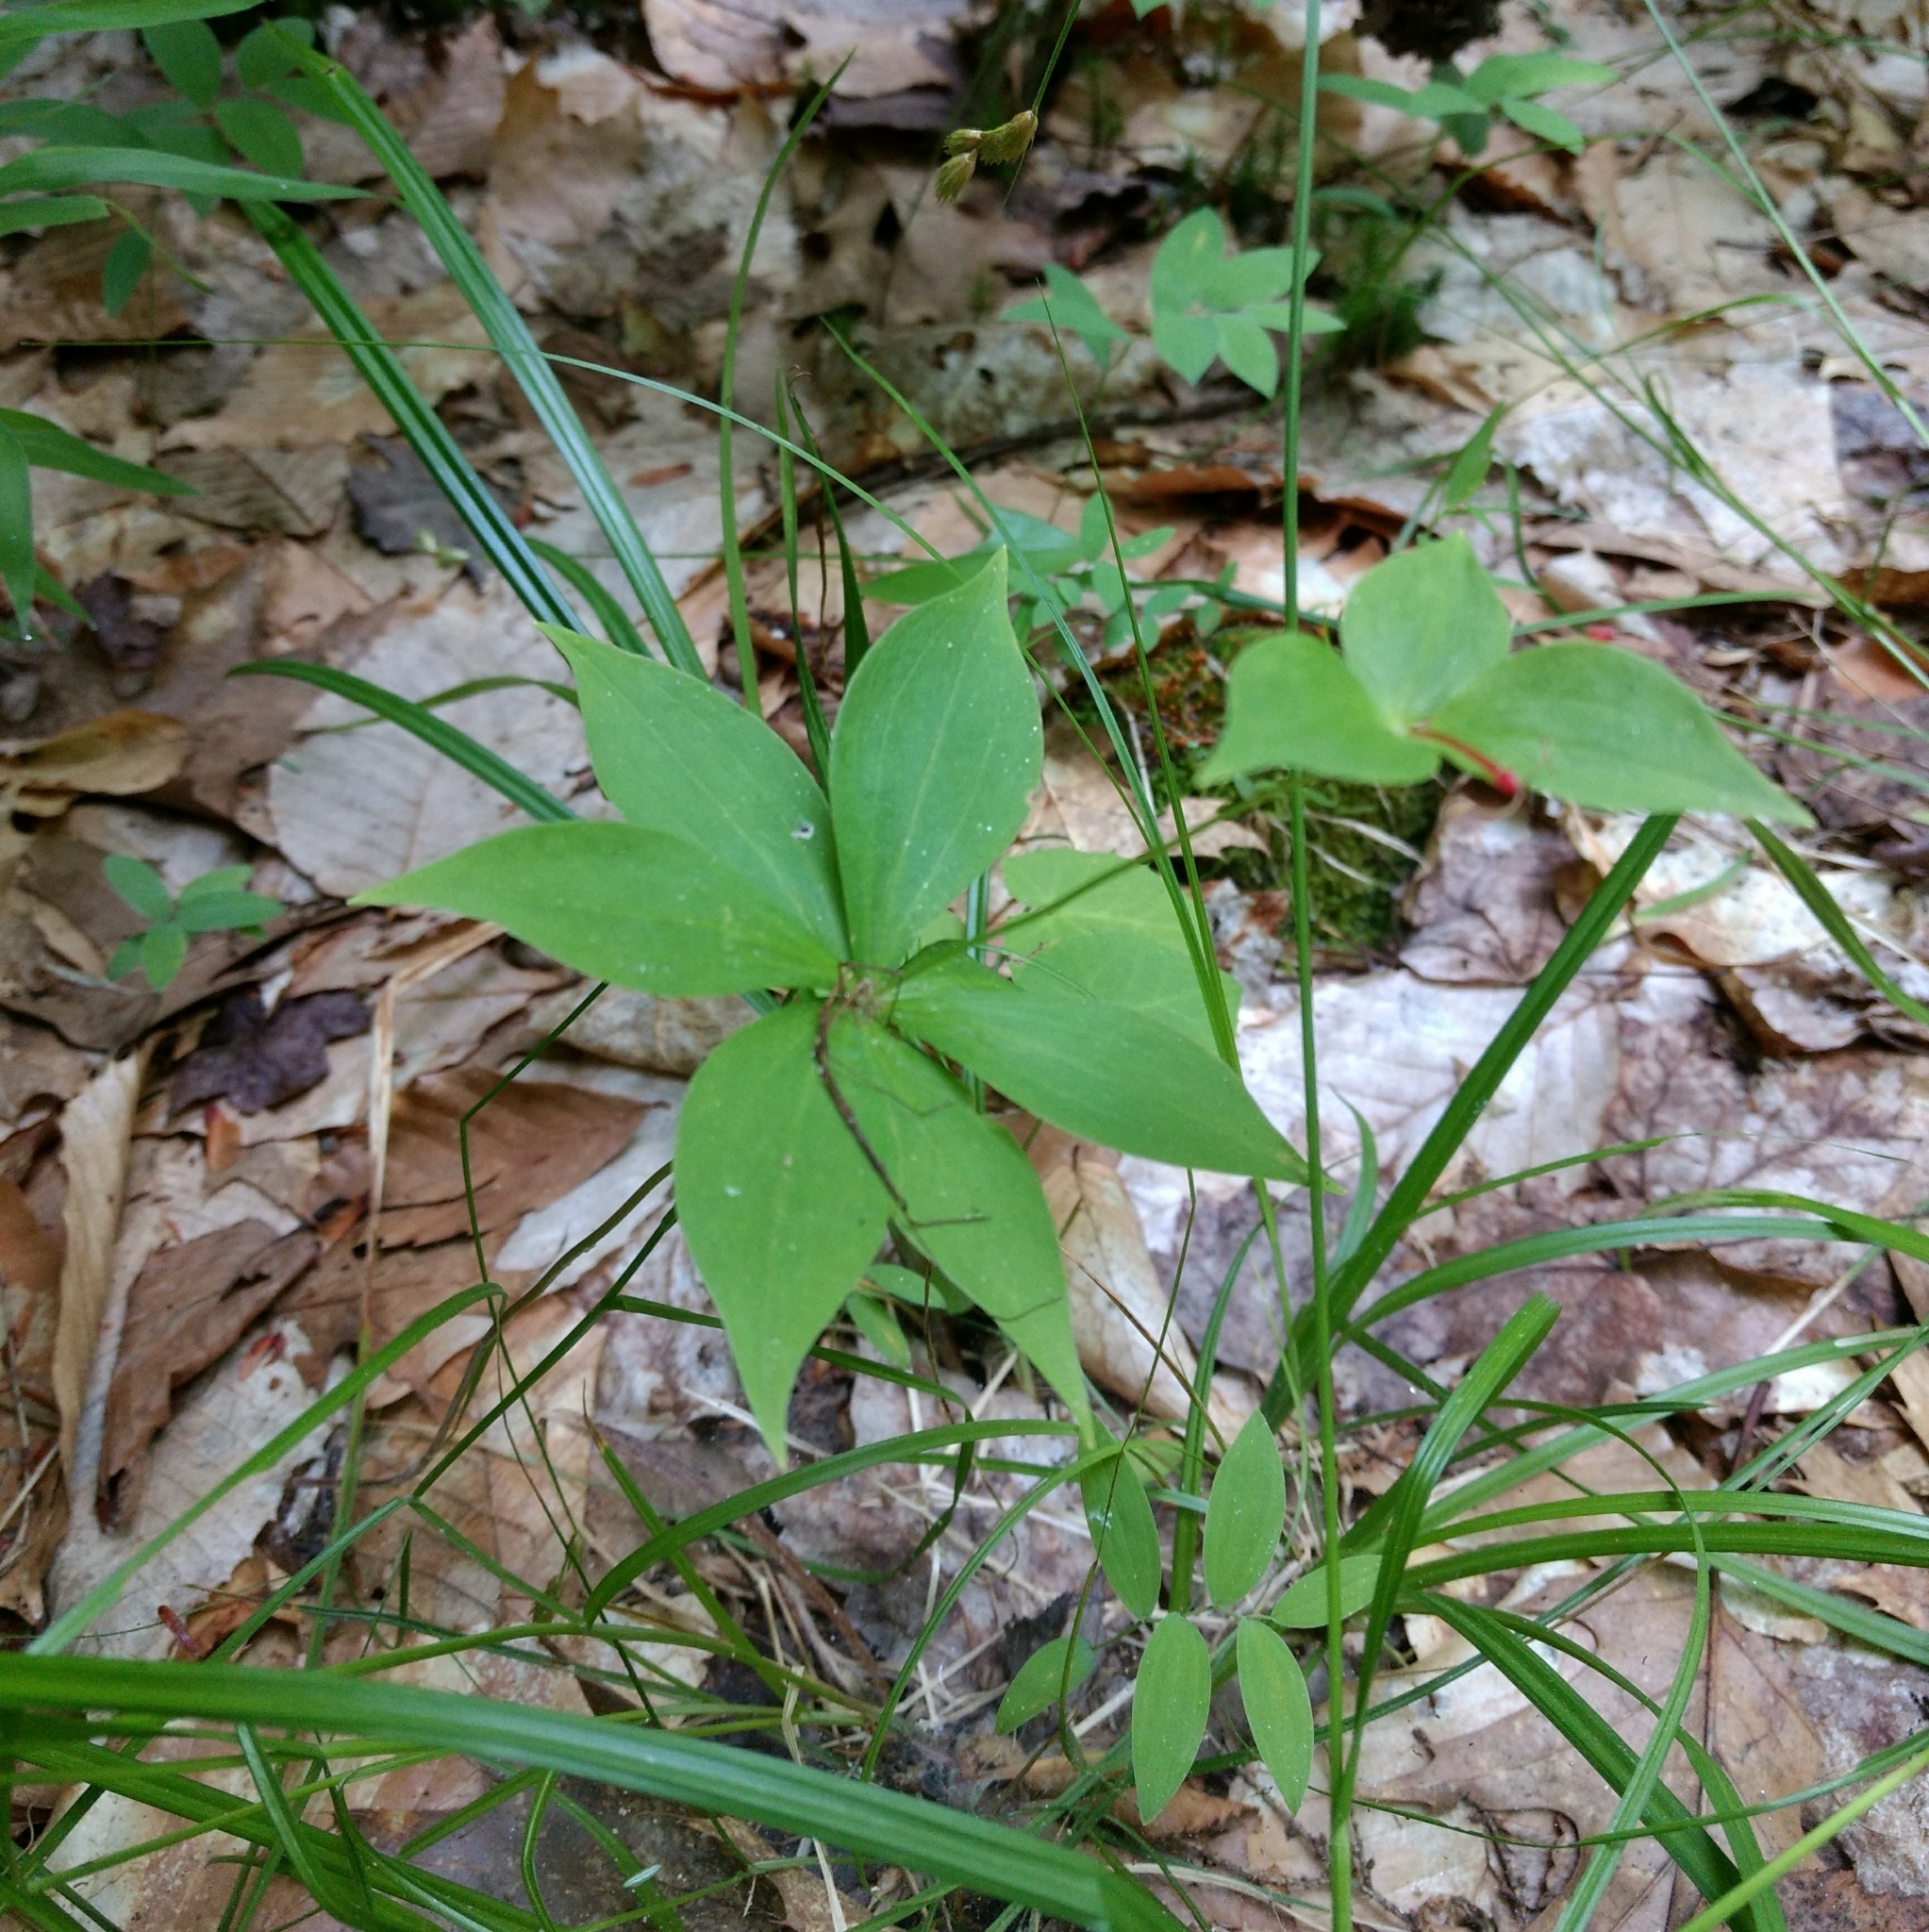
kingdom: Plantae
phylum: Tracheophyta
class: Liliopsida
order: Liliales
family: Liliaceae
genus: Medeola
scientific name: Medeola virginiana
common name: Indian cucumber-root
